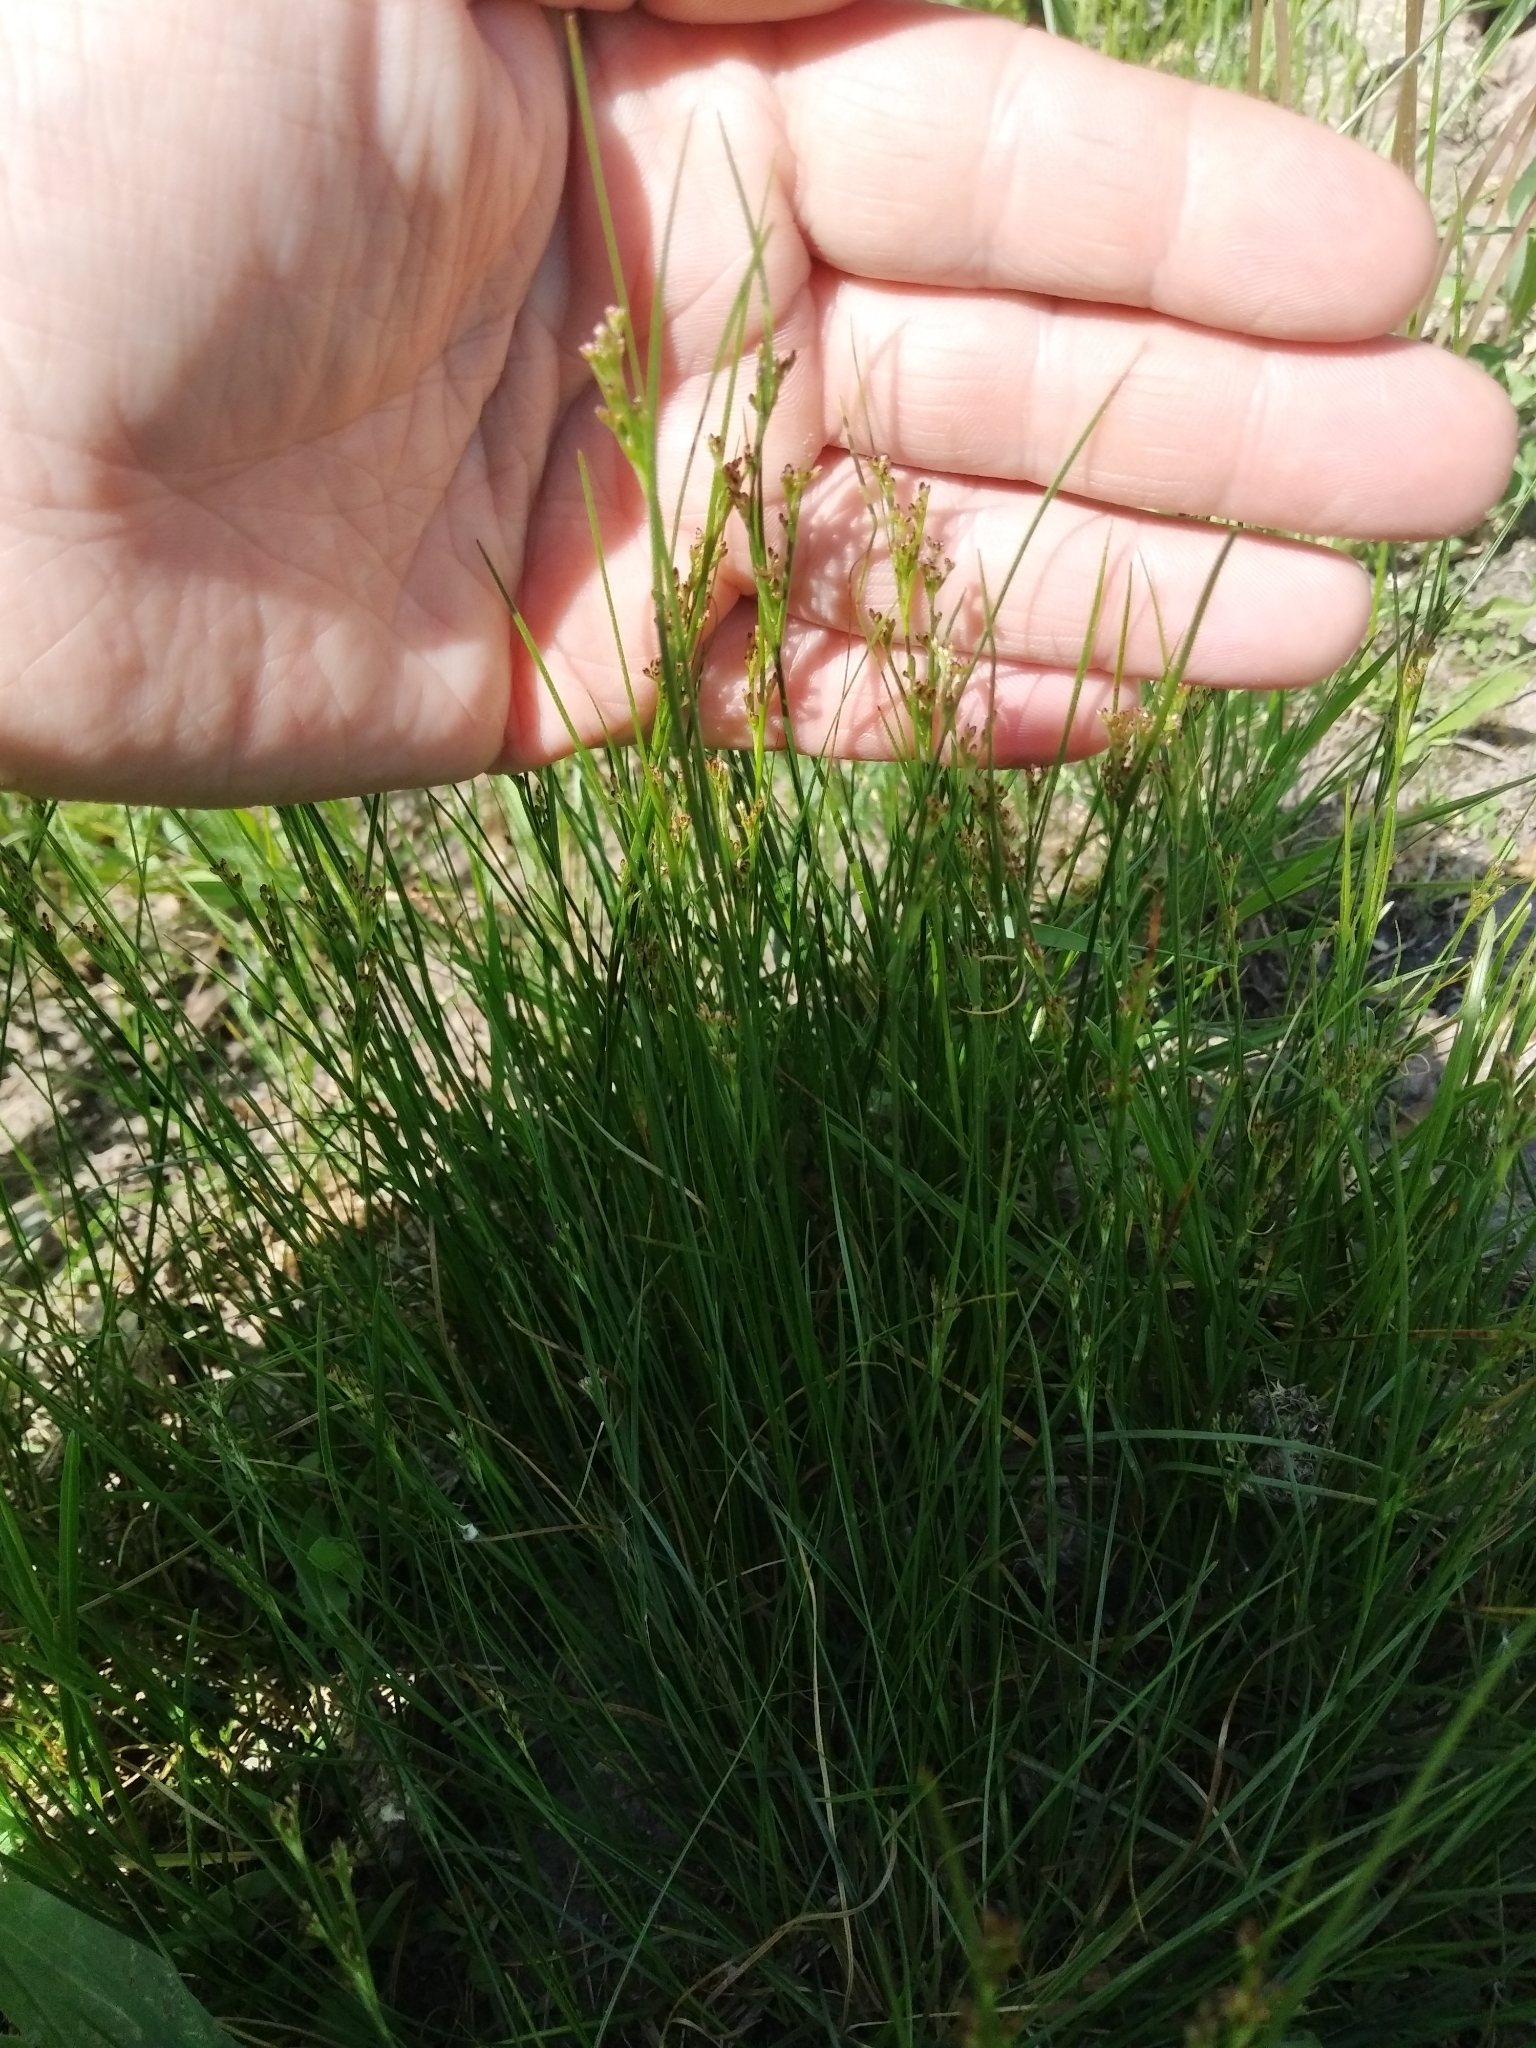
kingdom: Plantae
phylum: Tracheophyta
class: Liliopsida
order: Poales
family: Juncaceae
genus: Juncus
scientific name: Juncus compressus
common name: Round-fruited rush
